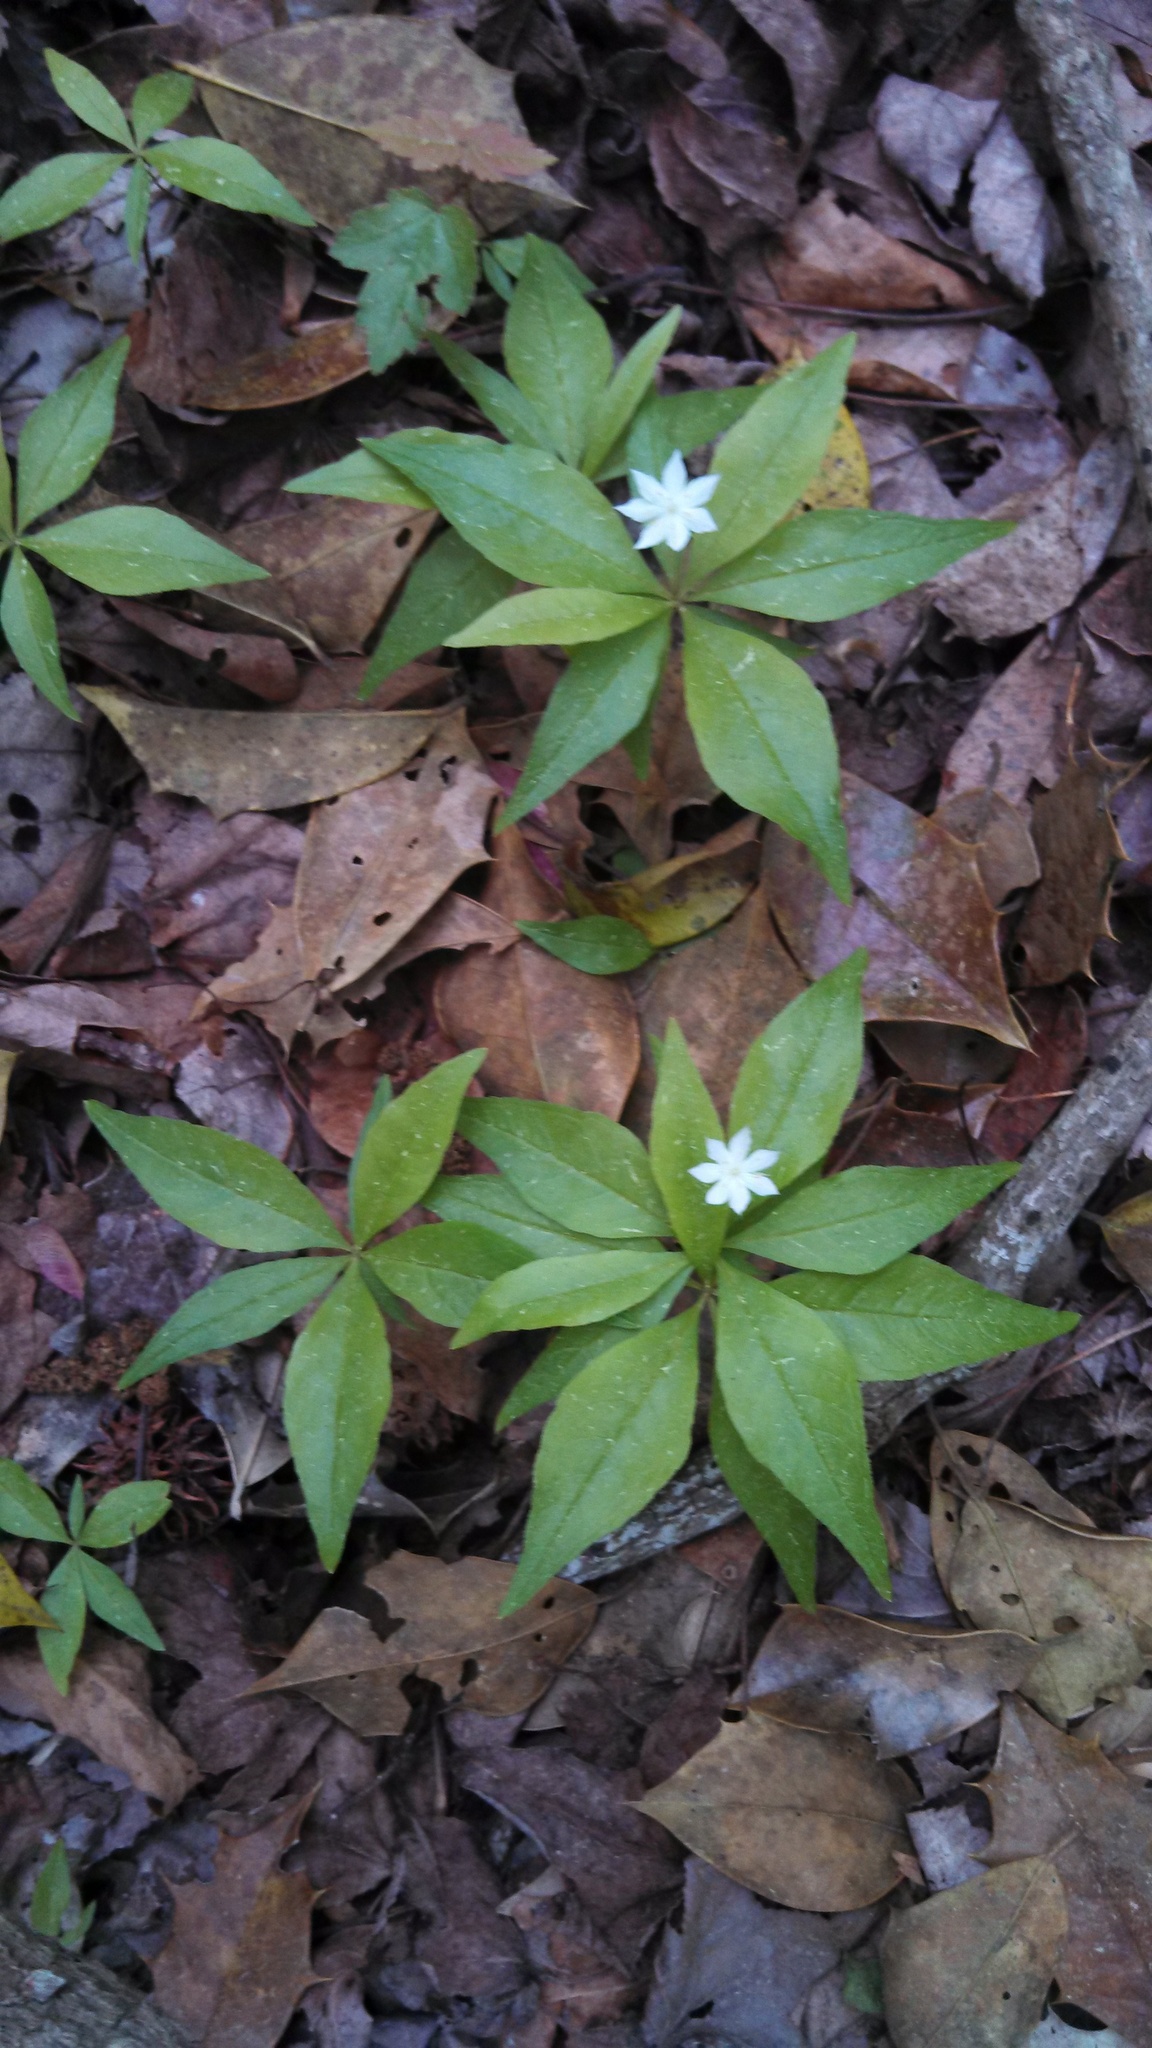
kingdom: Plantae
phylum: Tracheophyta
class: Magnoliopsida
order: Ericales
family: Primulaceae
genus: Lysimachia
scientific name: Lysimachia borealis
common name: American starflower
